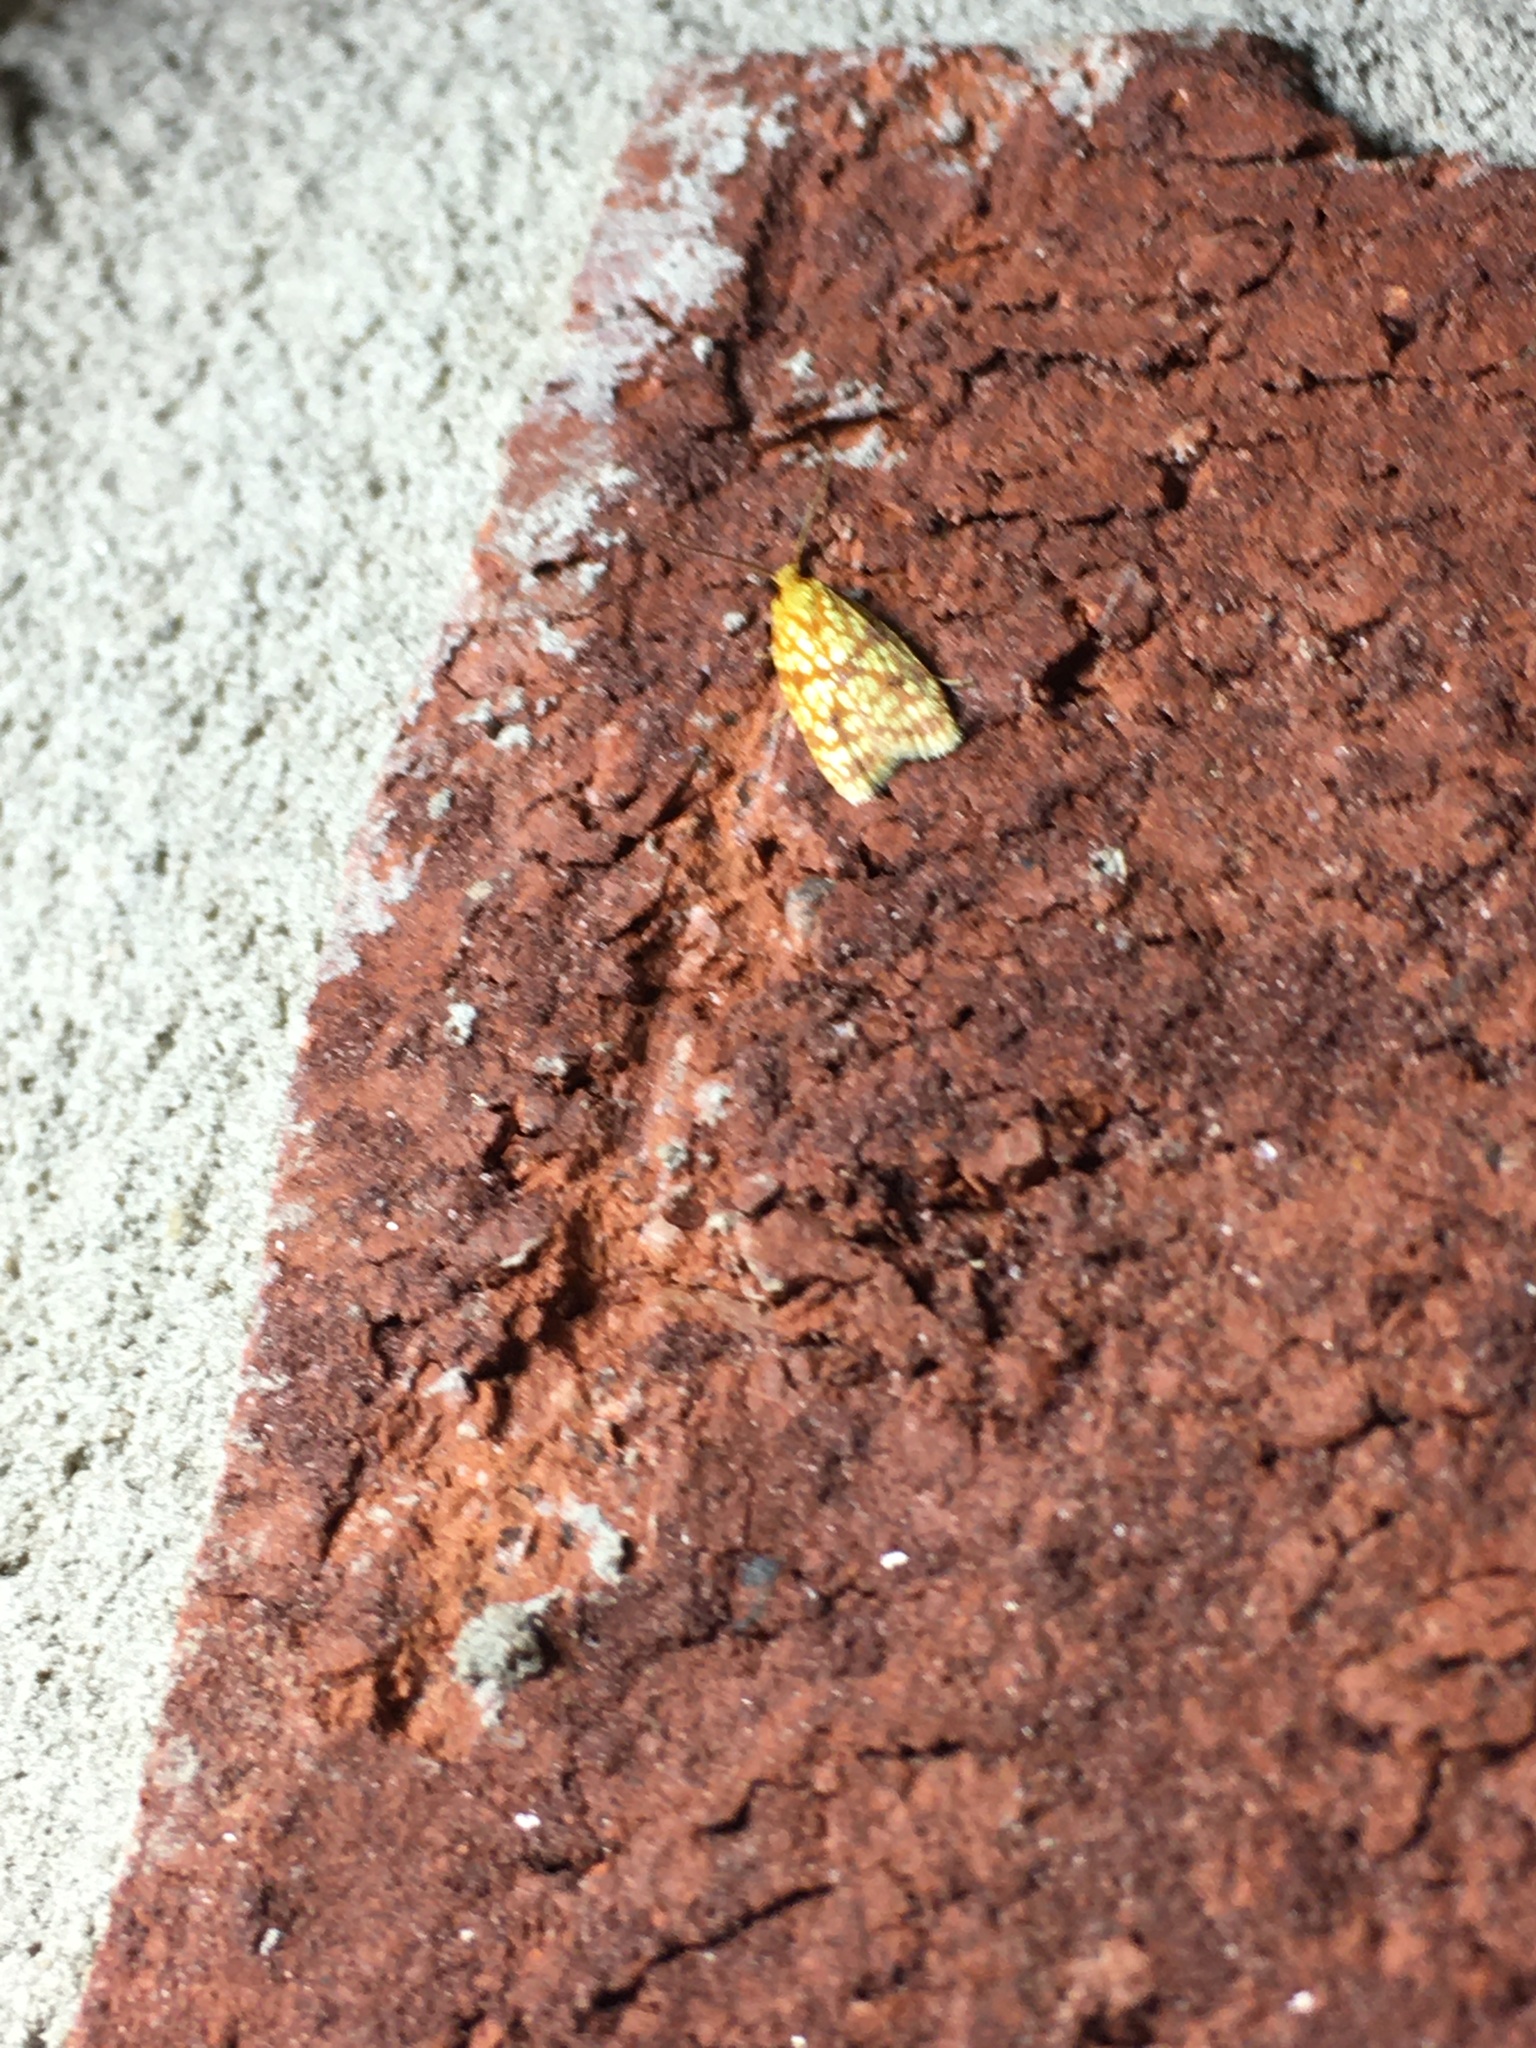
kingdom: Animalia
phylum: Arthropoda
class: Insecta
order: Lepidoptera
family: Tortricidae
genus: Sparganothis
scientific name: Sparganothis sulfureana
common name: Sparganothis fruitworm moth
